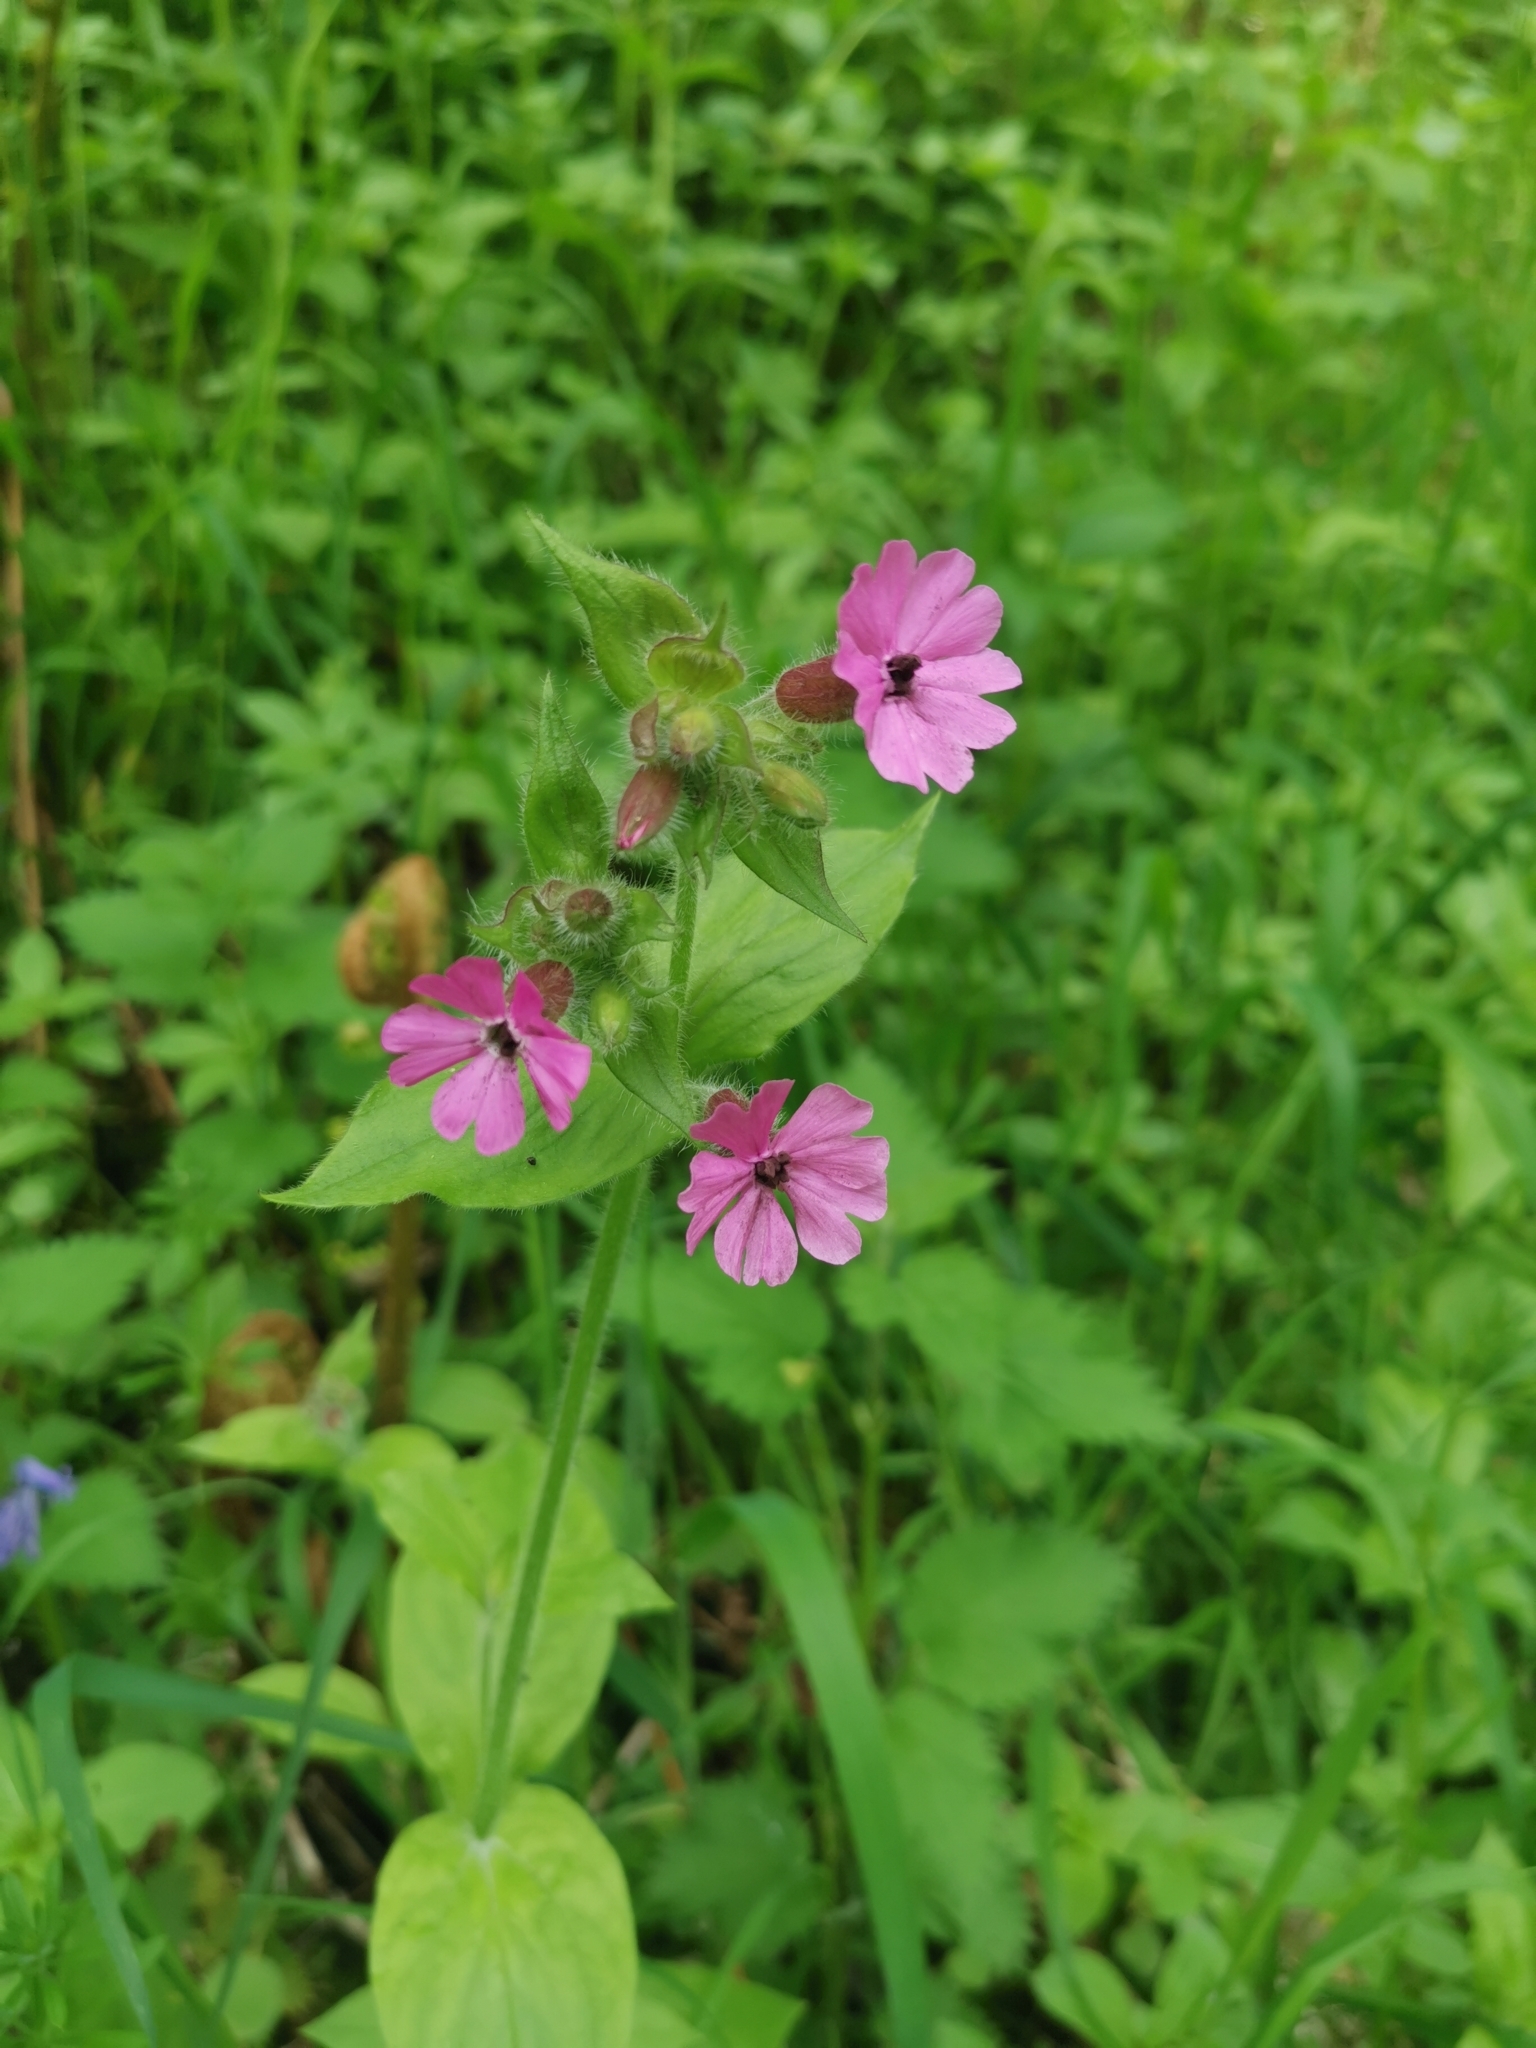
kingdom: Plantae
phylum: Tracheophyta
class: Magnoliopsida
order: Caryophyllales
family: Caryophyllaceae
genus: Silene
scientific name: Silene dioica
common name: Red campion
